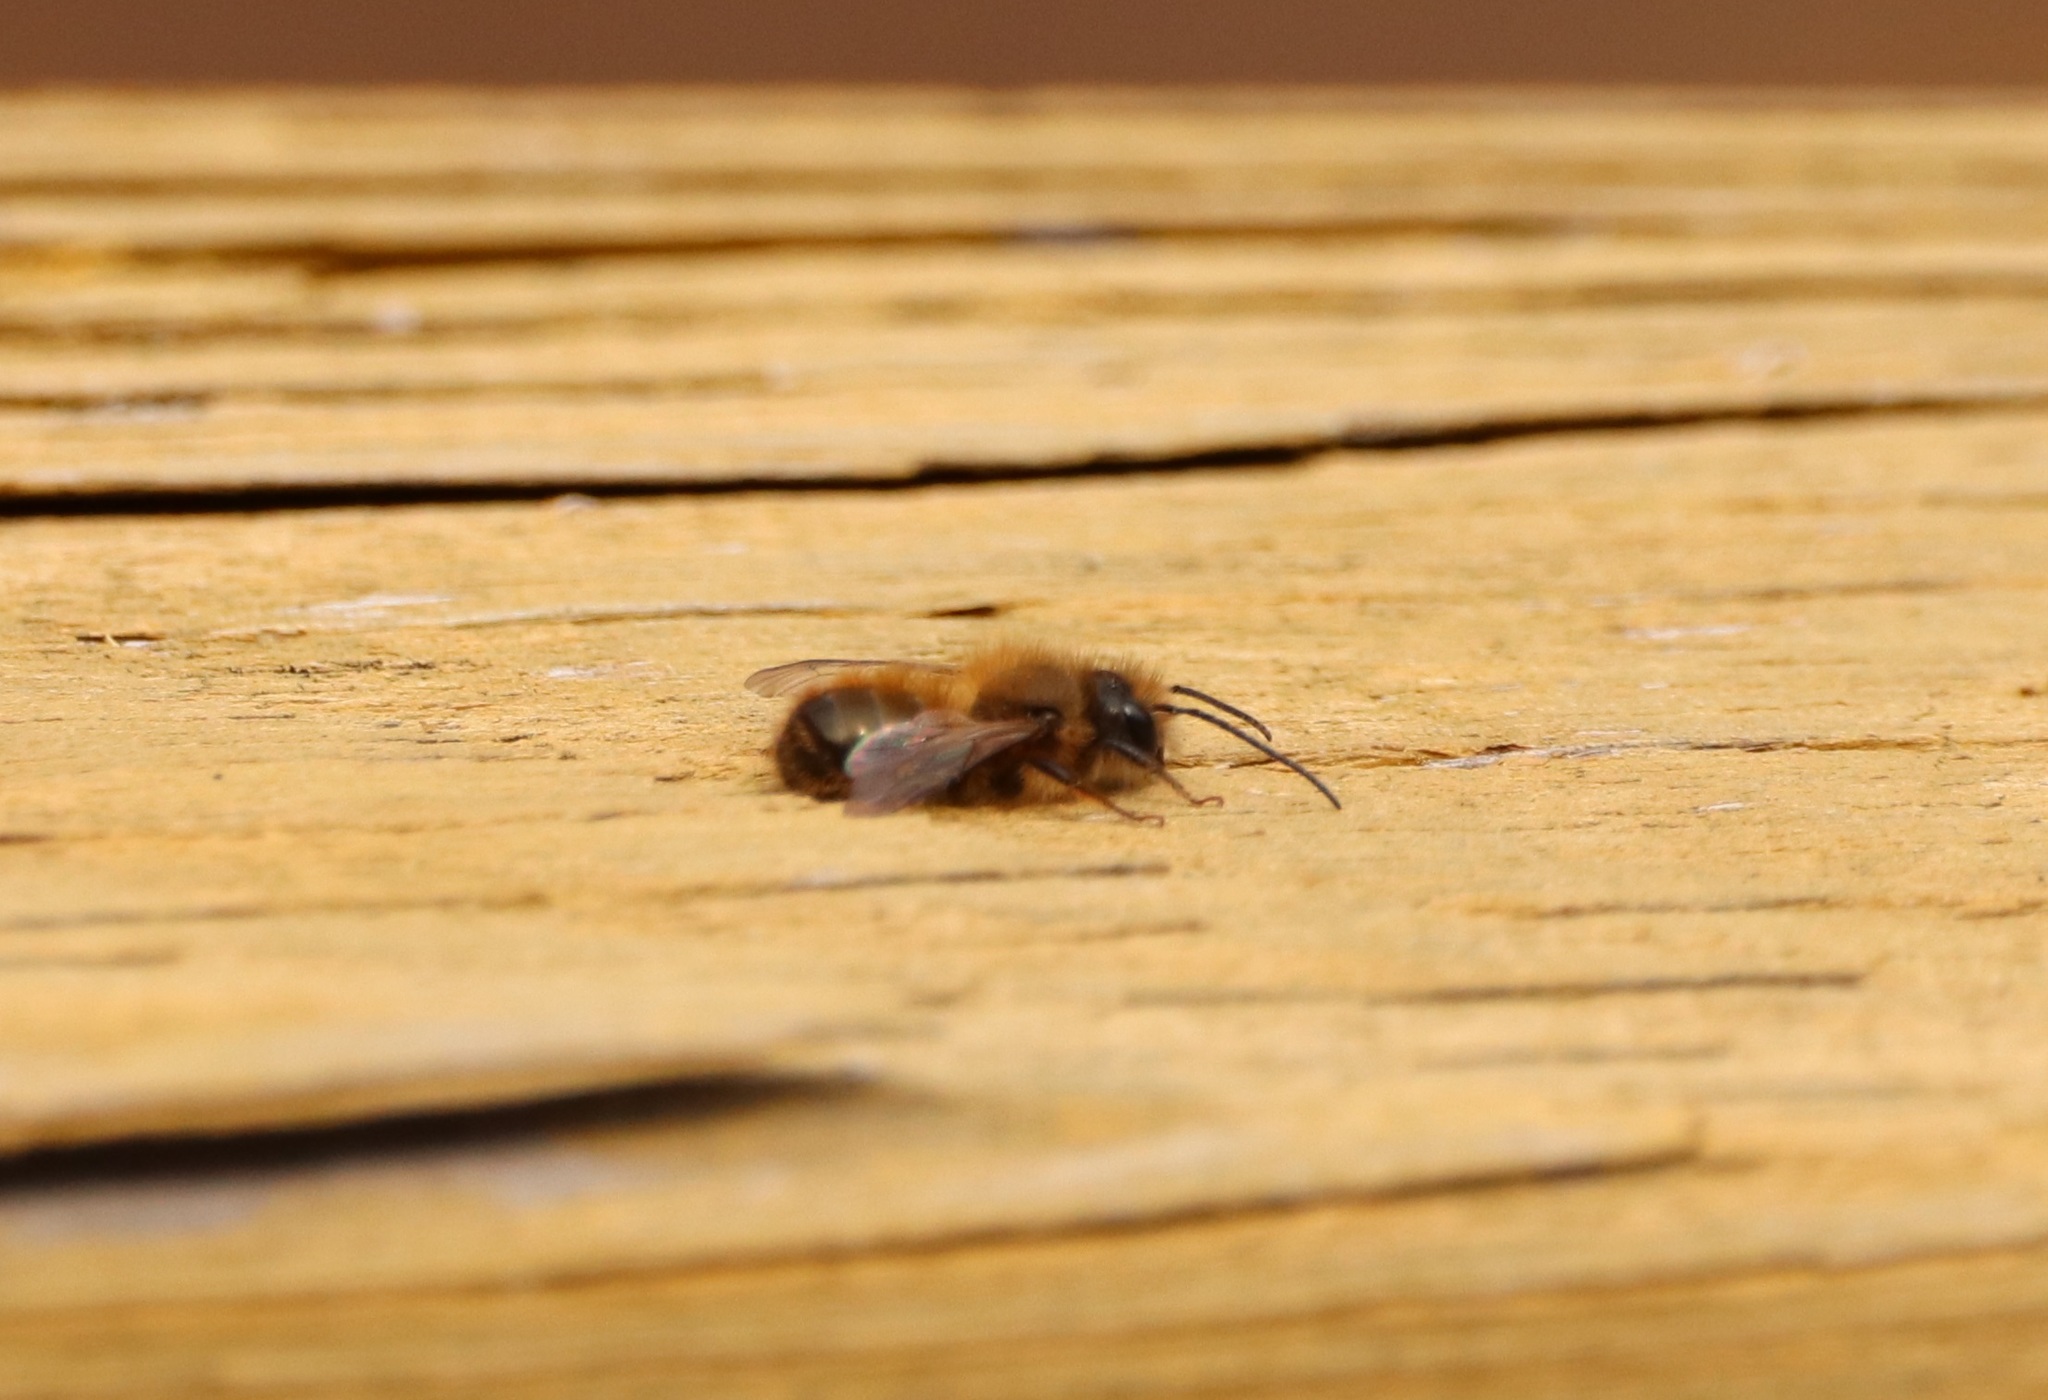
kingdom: Animalia
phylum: Arthropoda
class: Insecta
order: Hymenoptera
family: Megachilidae
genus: Osmia
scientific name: Osmia taurus
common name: Taurus mason bee
